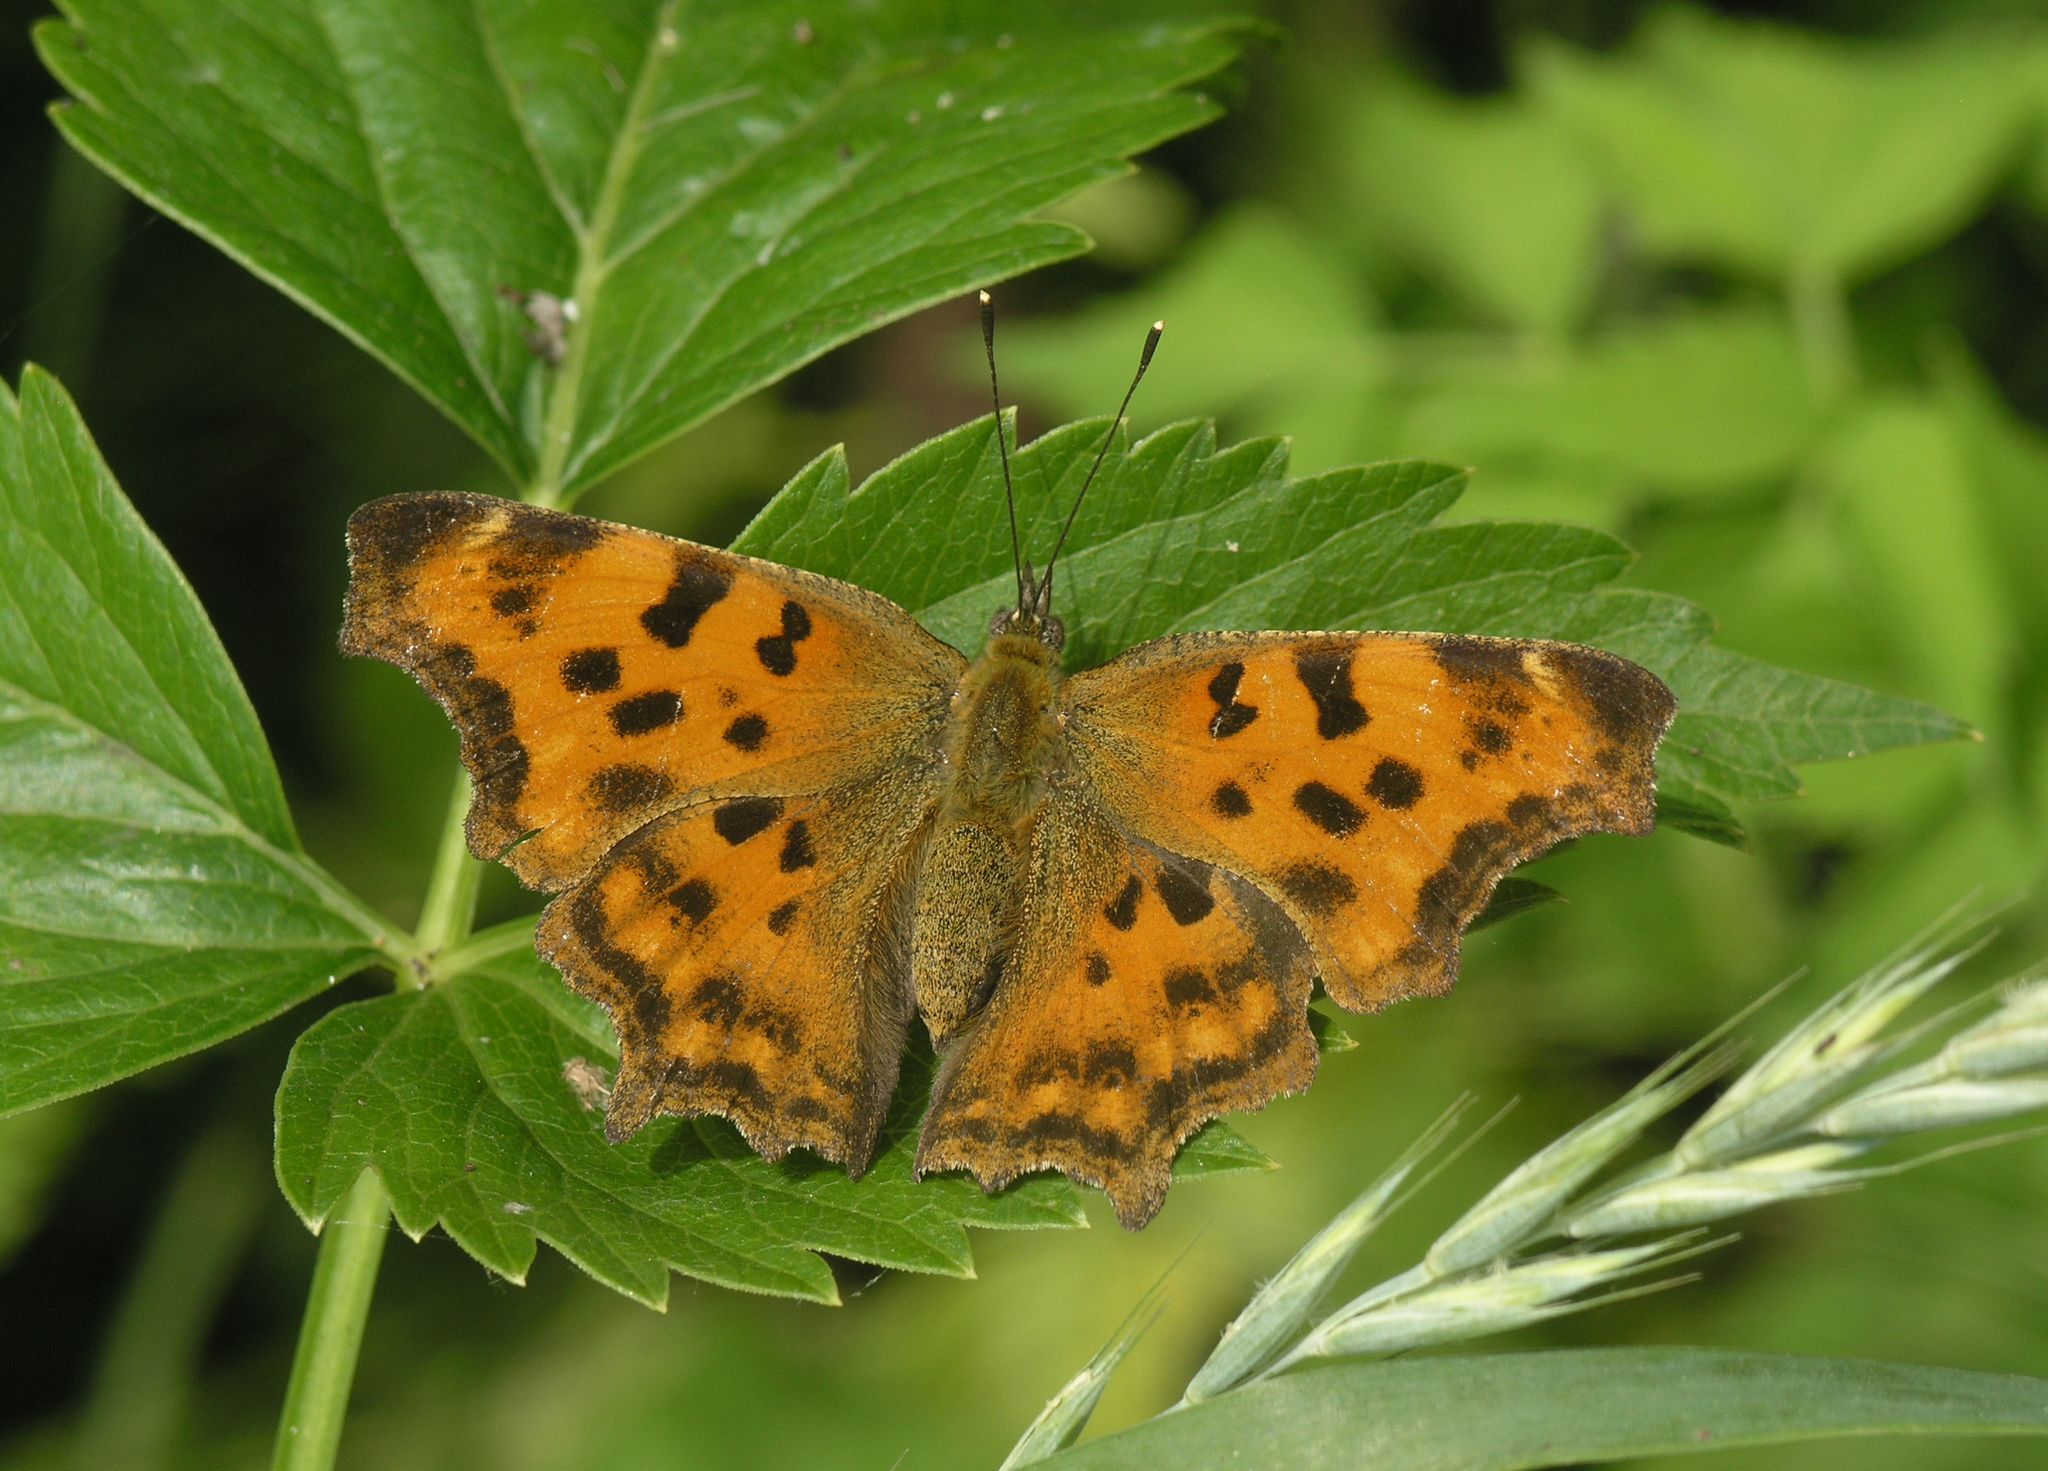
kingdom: Animalia
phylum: Arthropoda
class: Insecta
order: Lepidoptera
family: Nymphalidae
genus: Polygonia
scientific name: Polygonia c-album
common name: Comma
